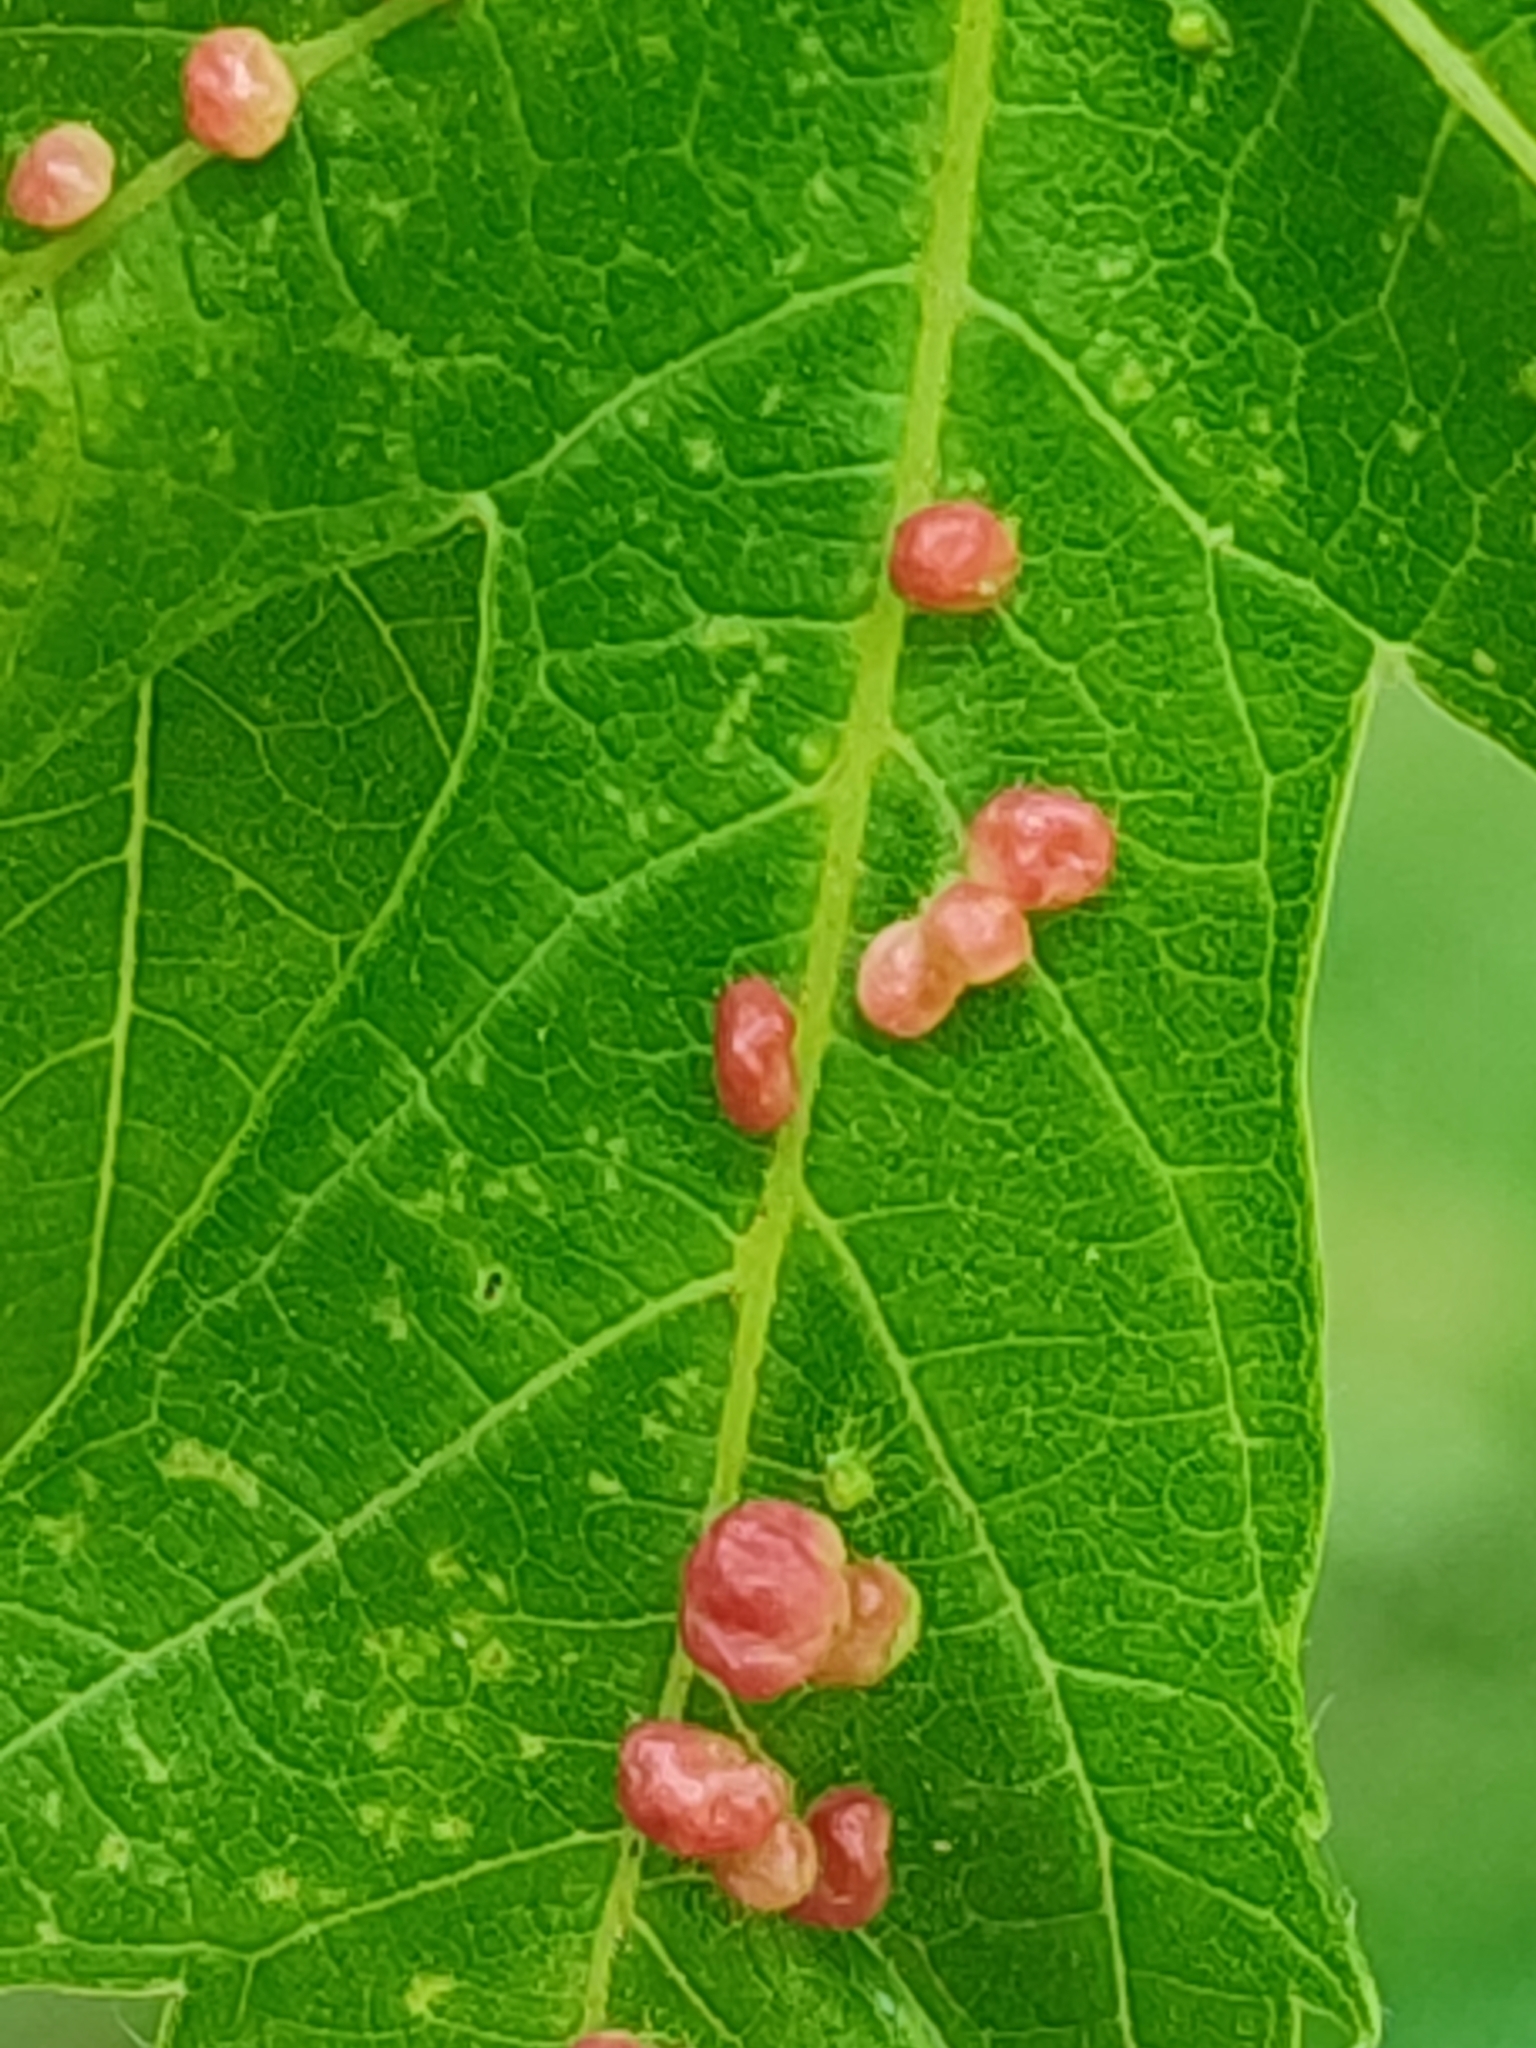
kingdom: Animalia
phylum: Arthropoda
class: Arachnida
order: Trombidiformes
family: Eriophyidae
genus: Vasates
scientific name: Vasates quadripedes
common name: Maple bladder gall mite
